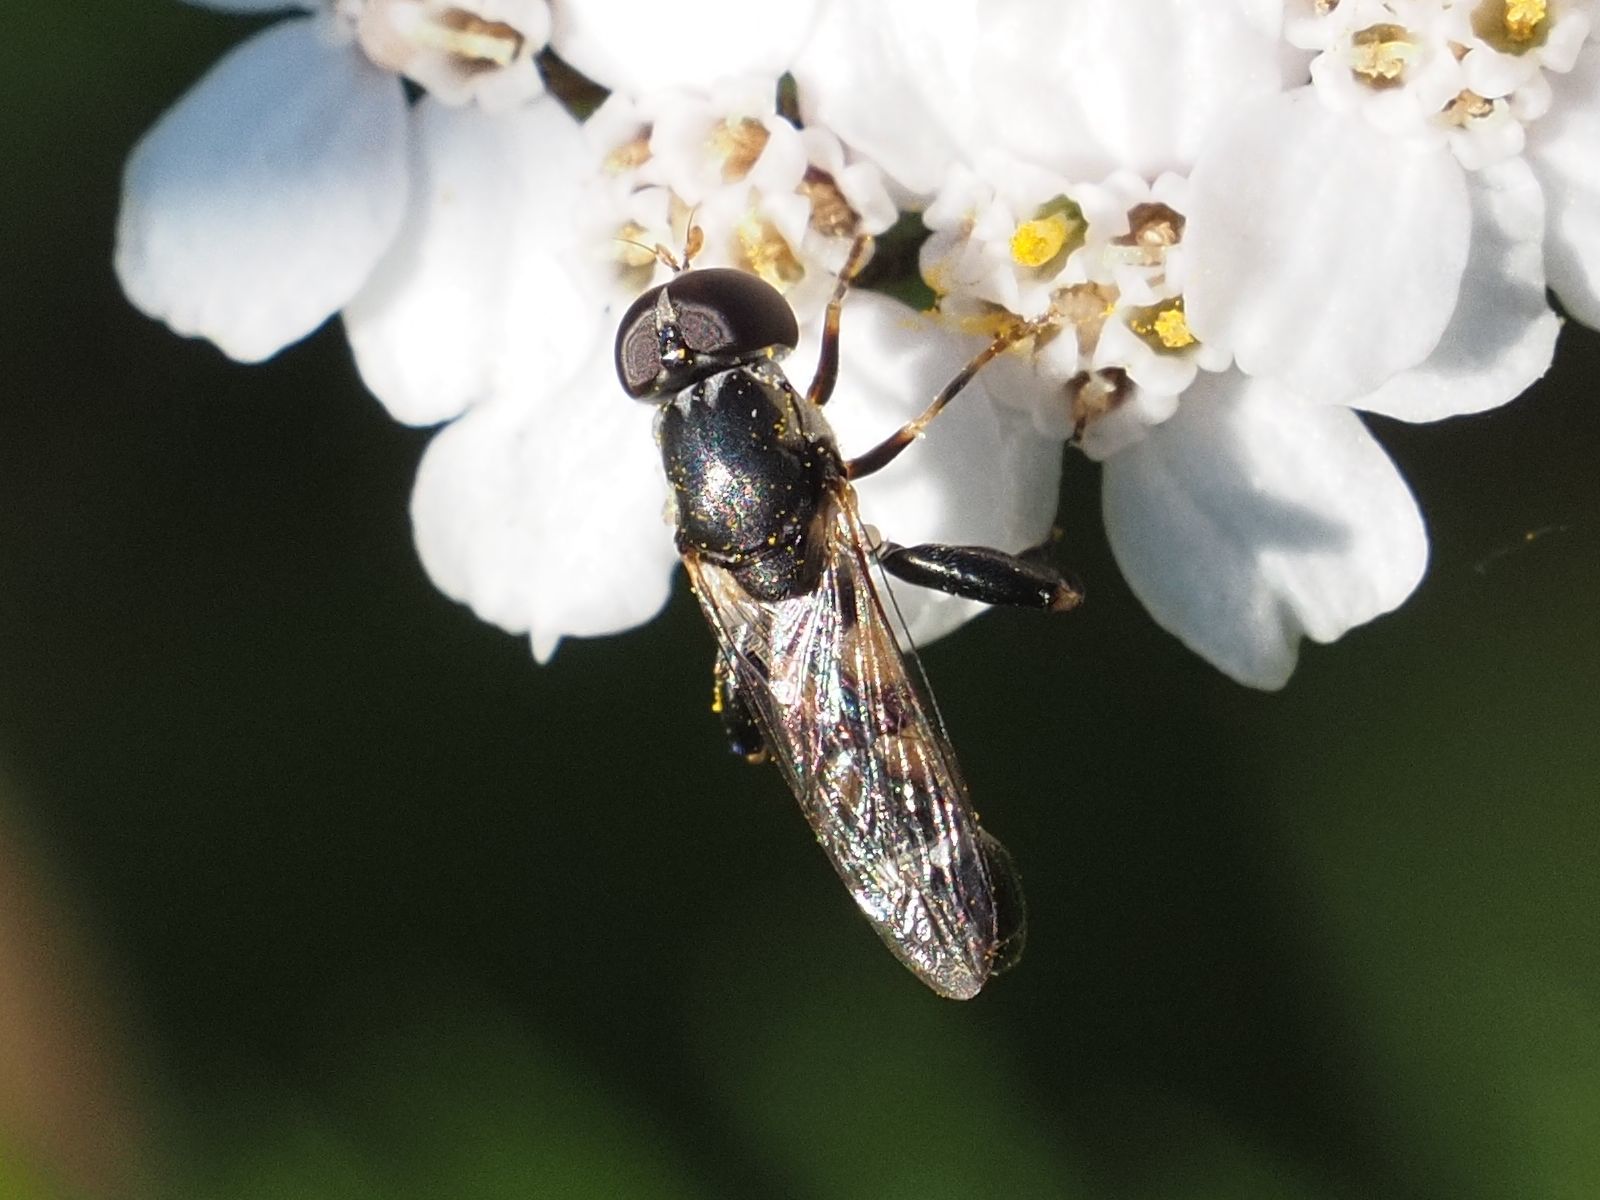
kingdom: Animalia
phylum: Arthropoda
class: Insecta
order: Diptera
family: Syrphidae
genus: Syritta
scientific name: Syritta pipiens
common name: Hover fly
